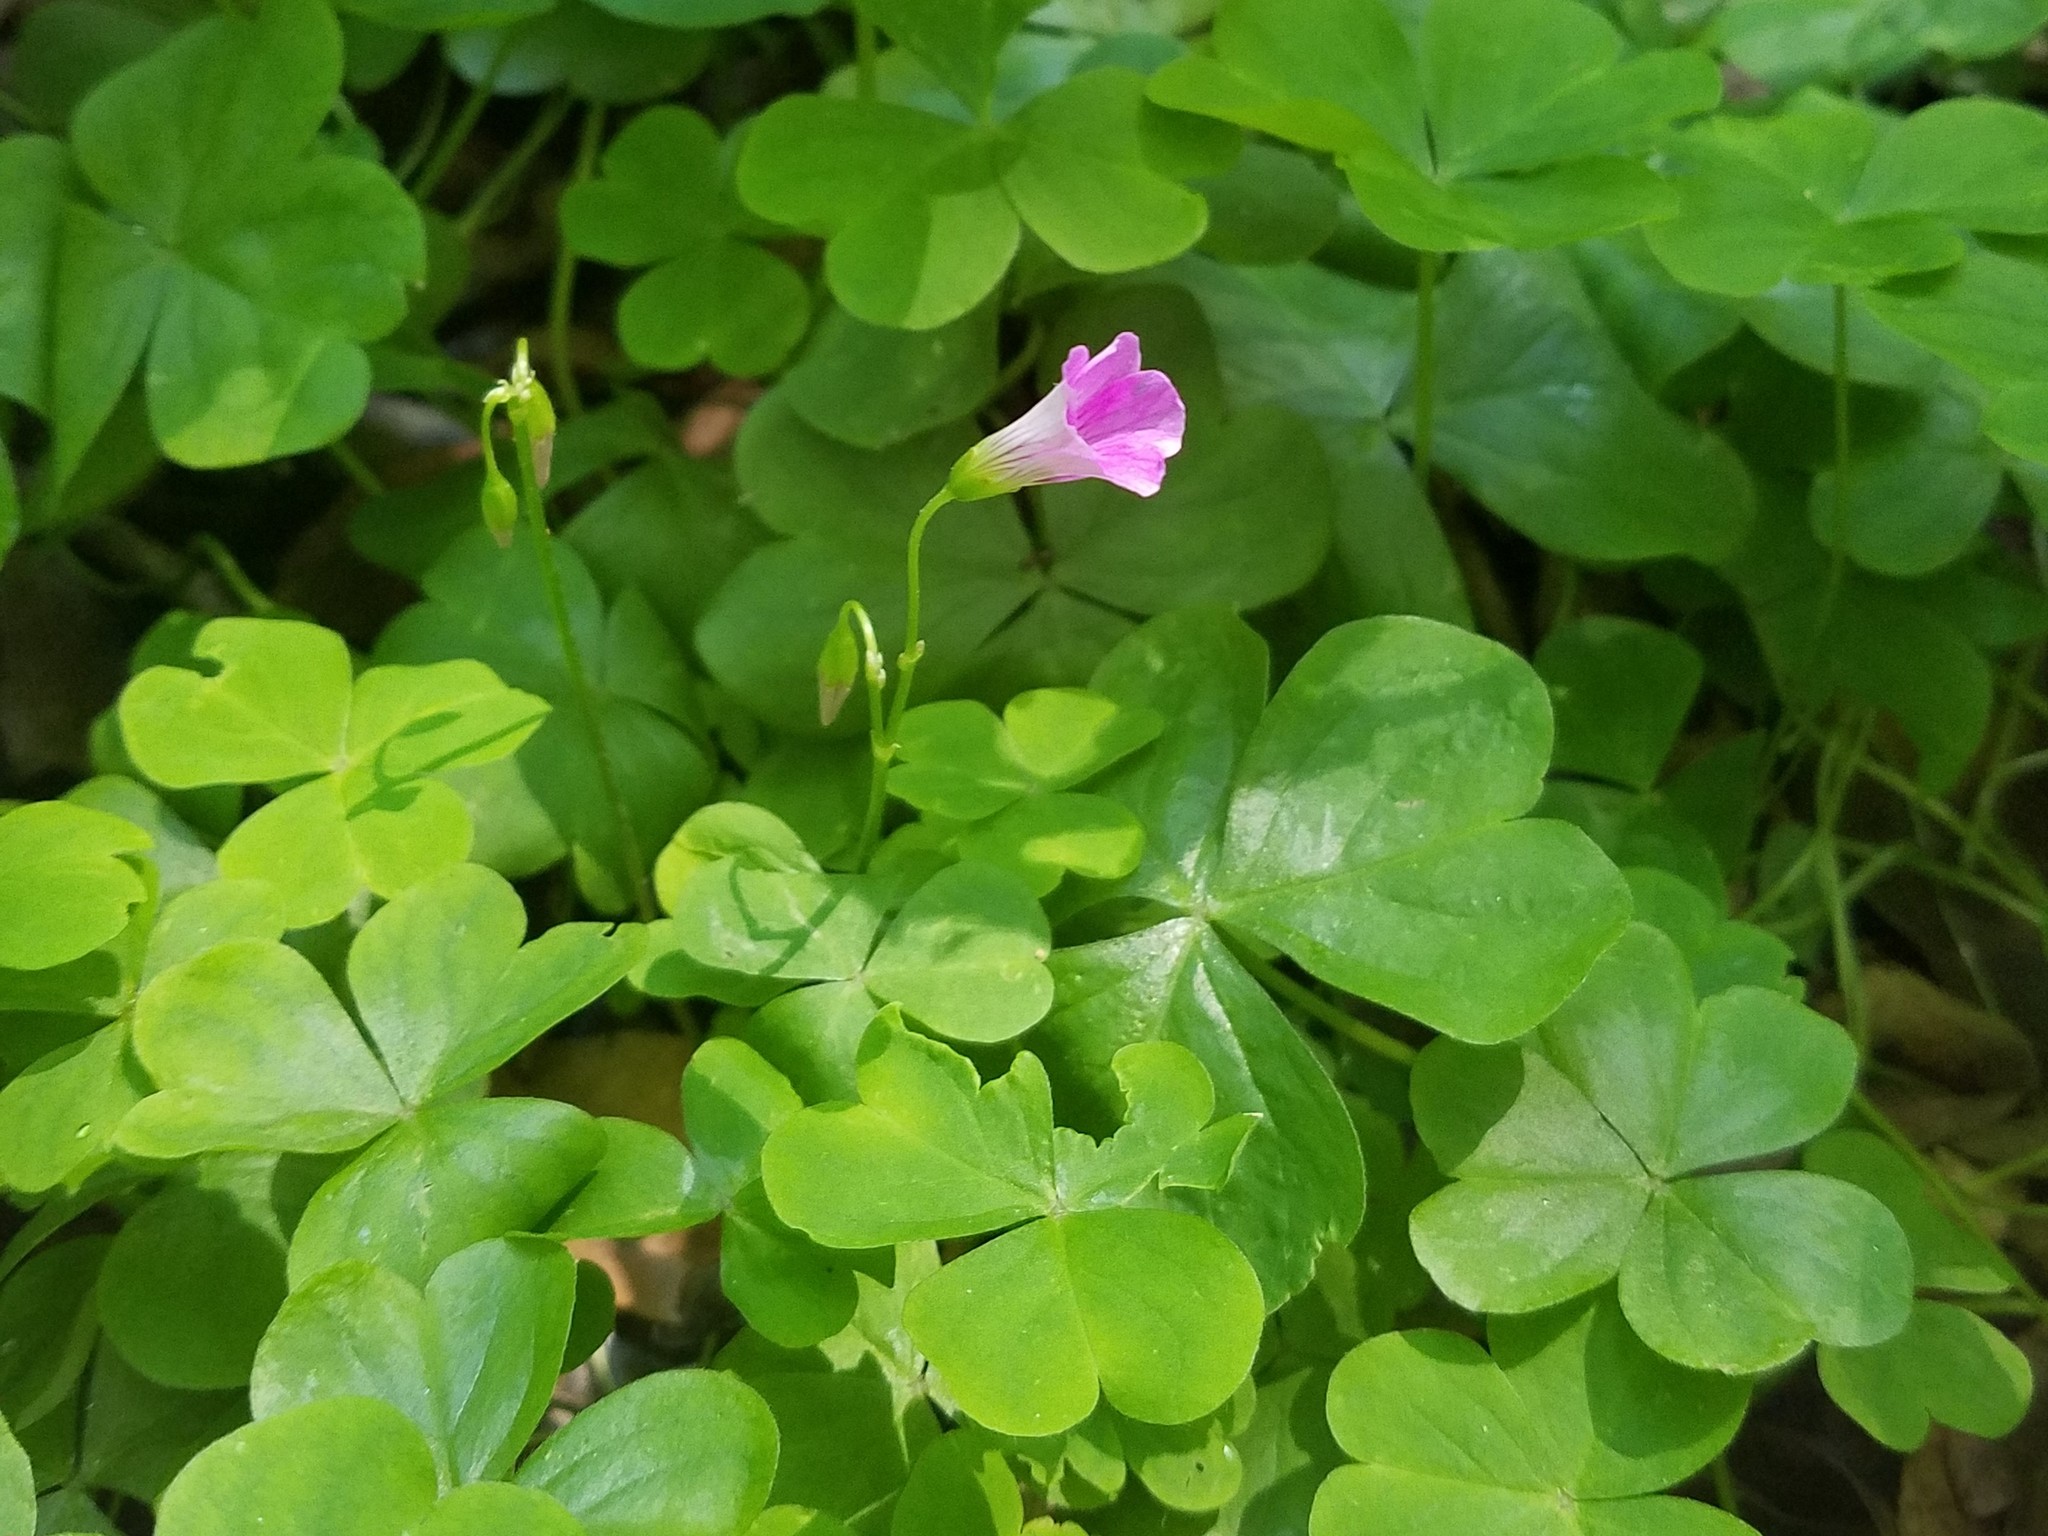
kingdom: Plantae
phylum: Tracheophyta
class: Magnoliopsida
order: Oxalidales
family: Oxalidaceae
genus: Oxalis
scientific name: Oxalis debilis
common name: Large-flowered pink-sorrel
